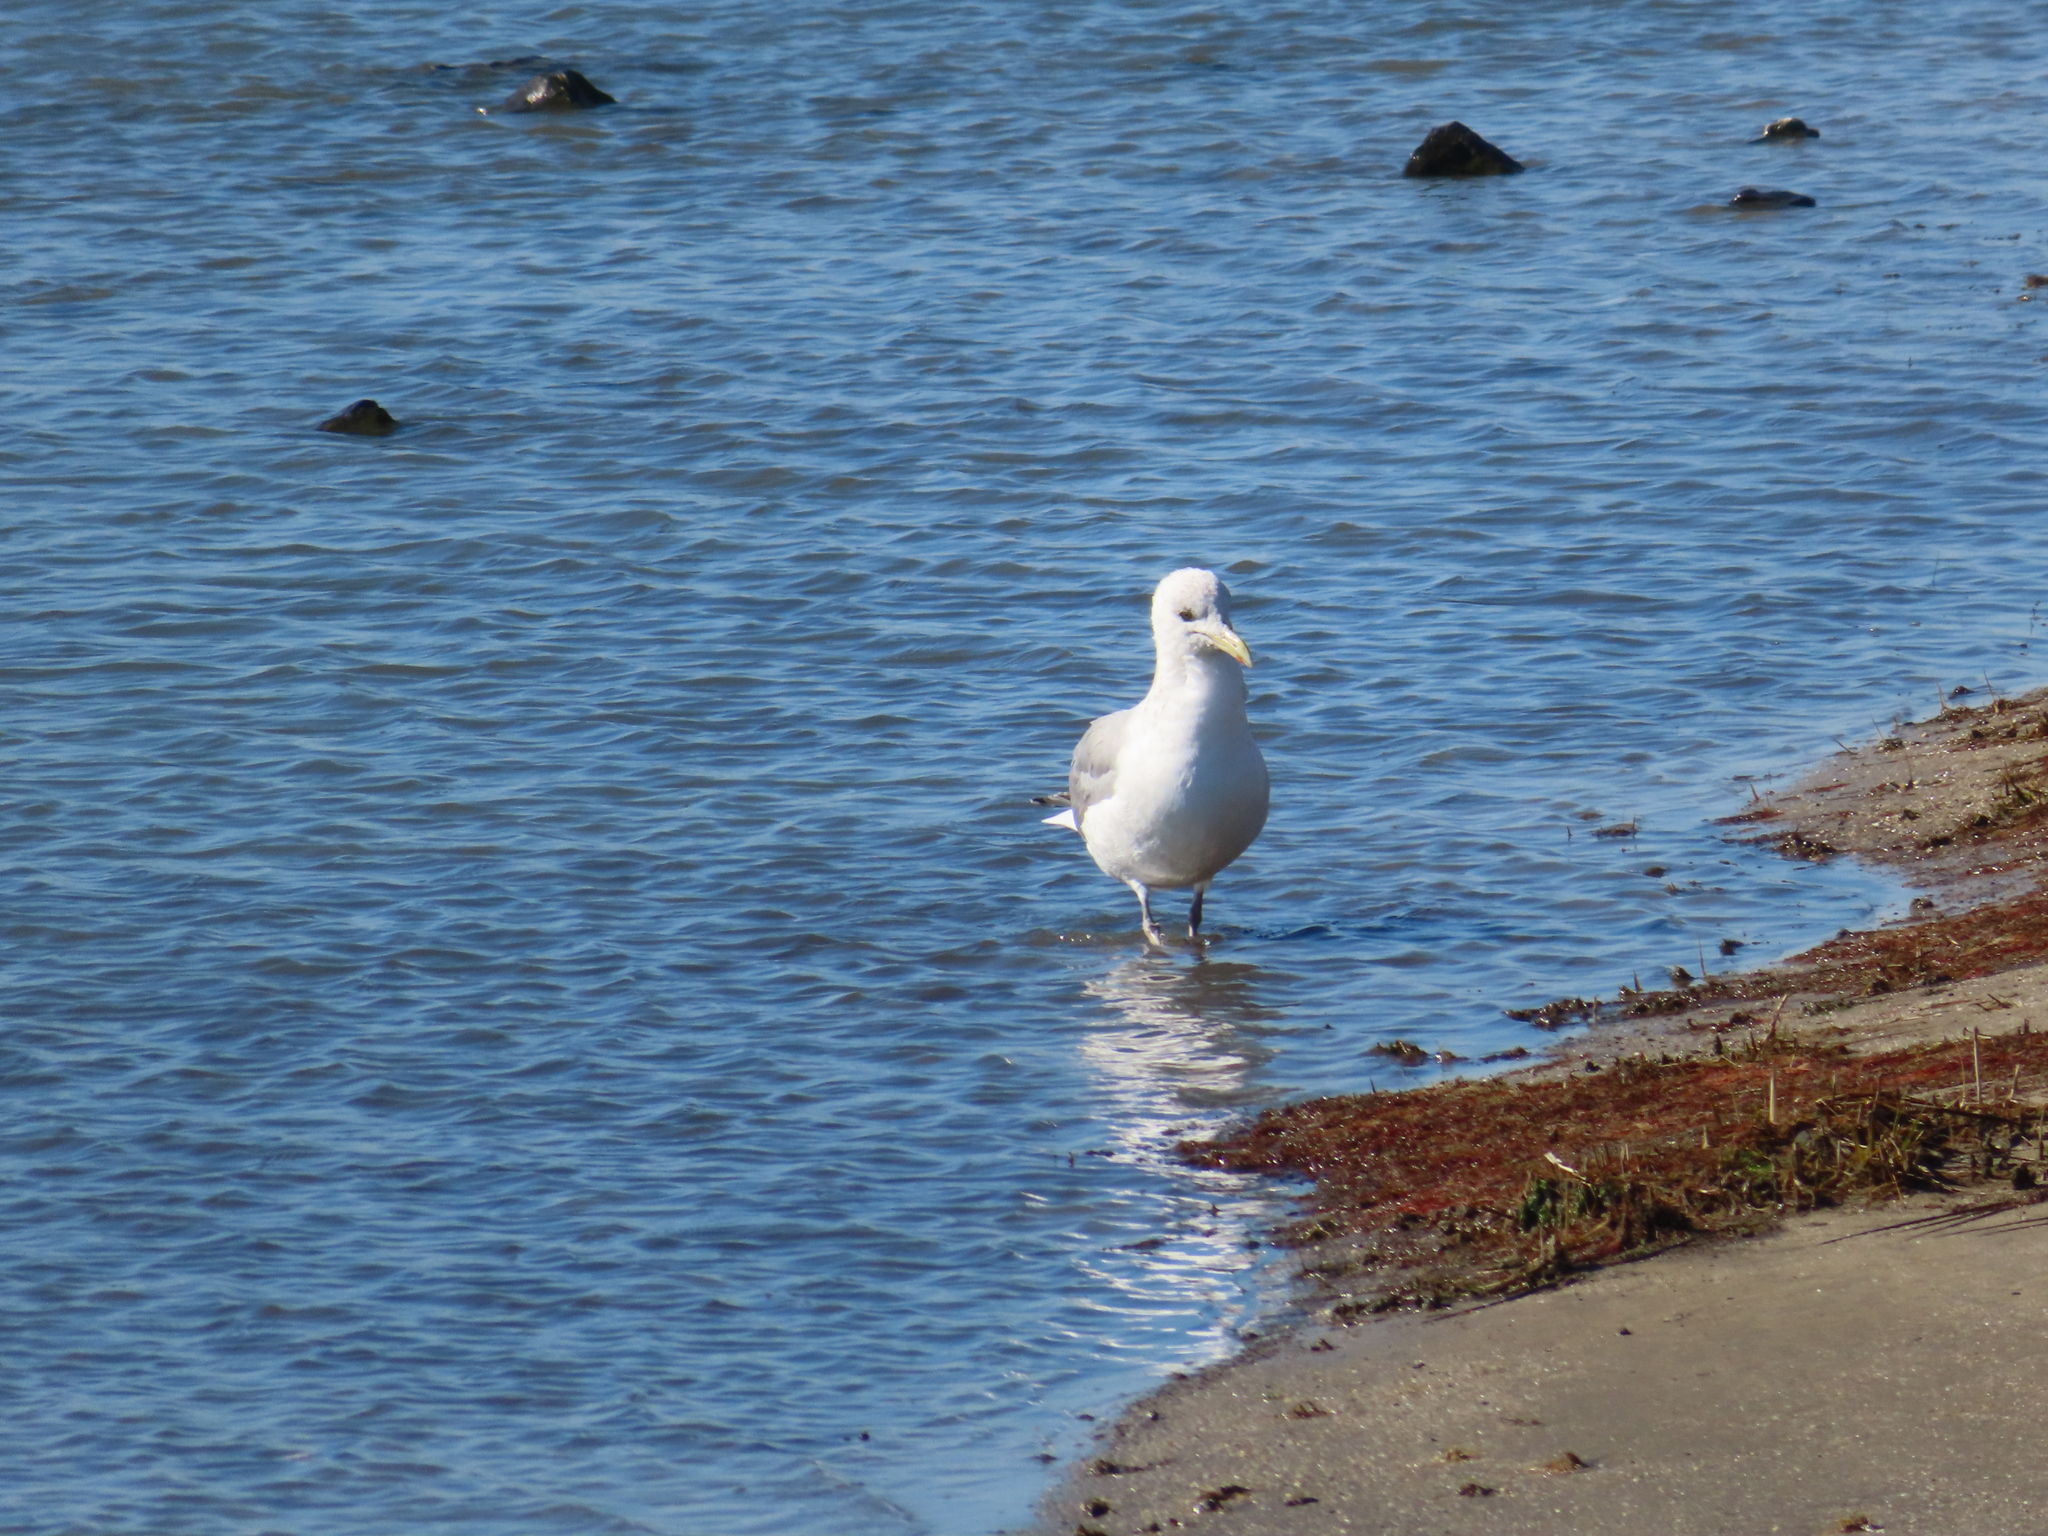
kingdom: Animalia
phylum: Chordata
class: Aves
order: Charadriiformes
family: Laridae
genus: Larus
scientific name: Larus argentatus
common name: Herring gull
